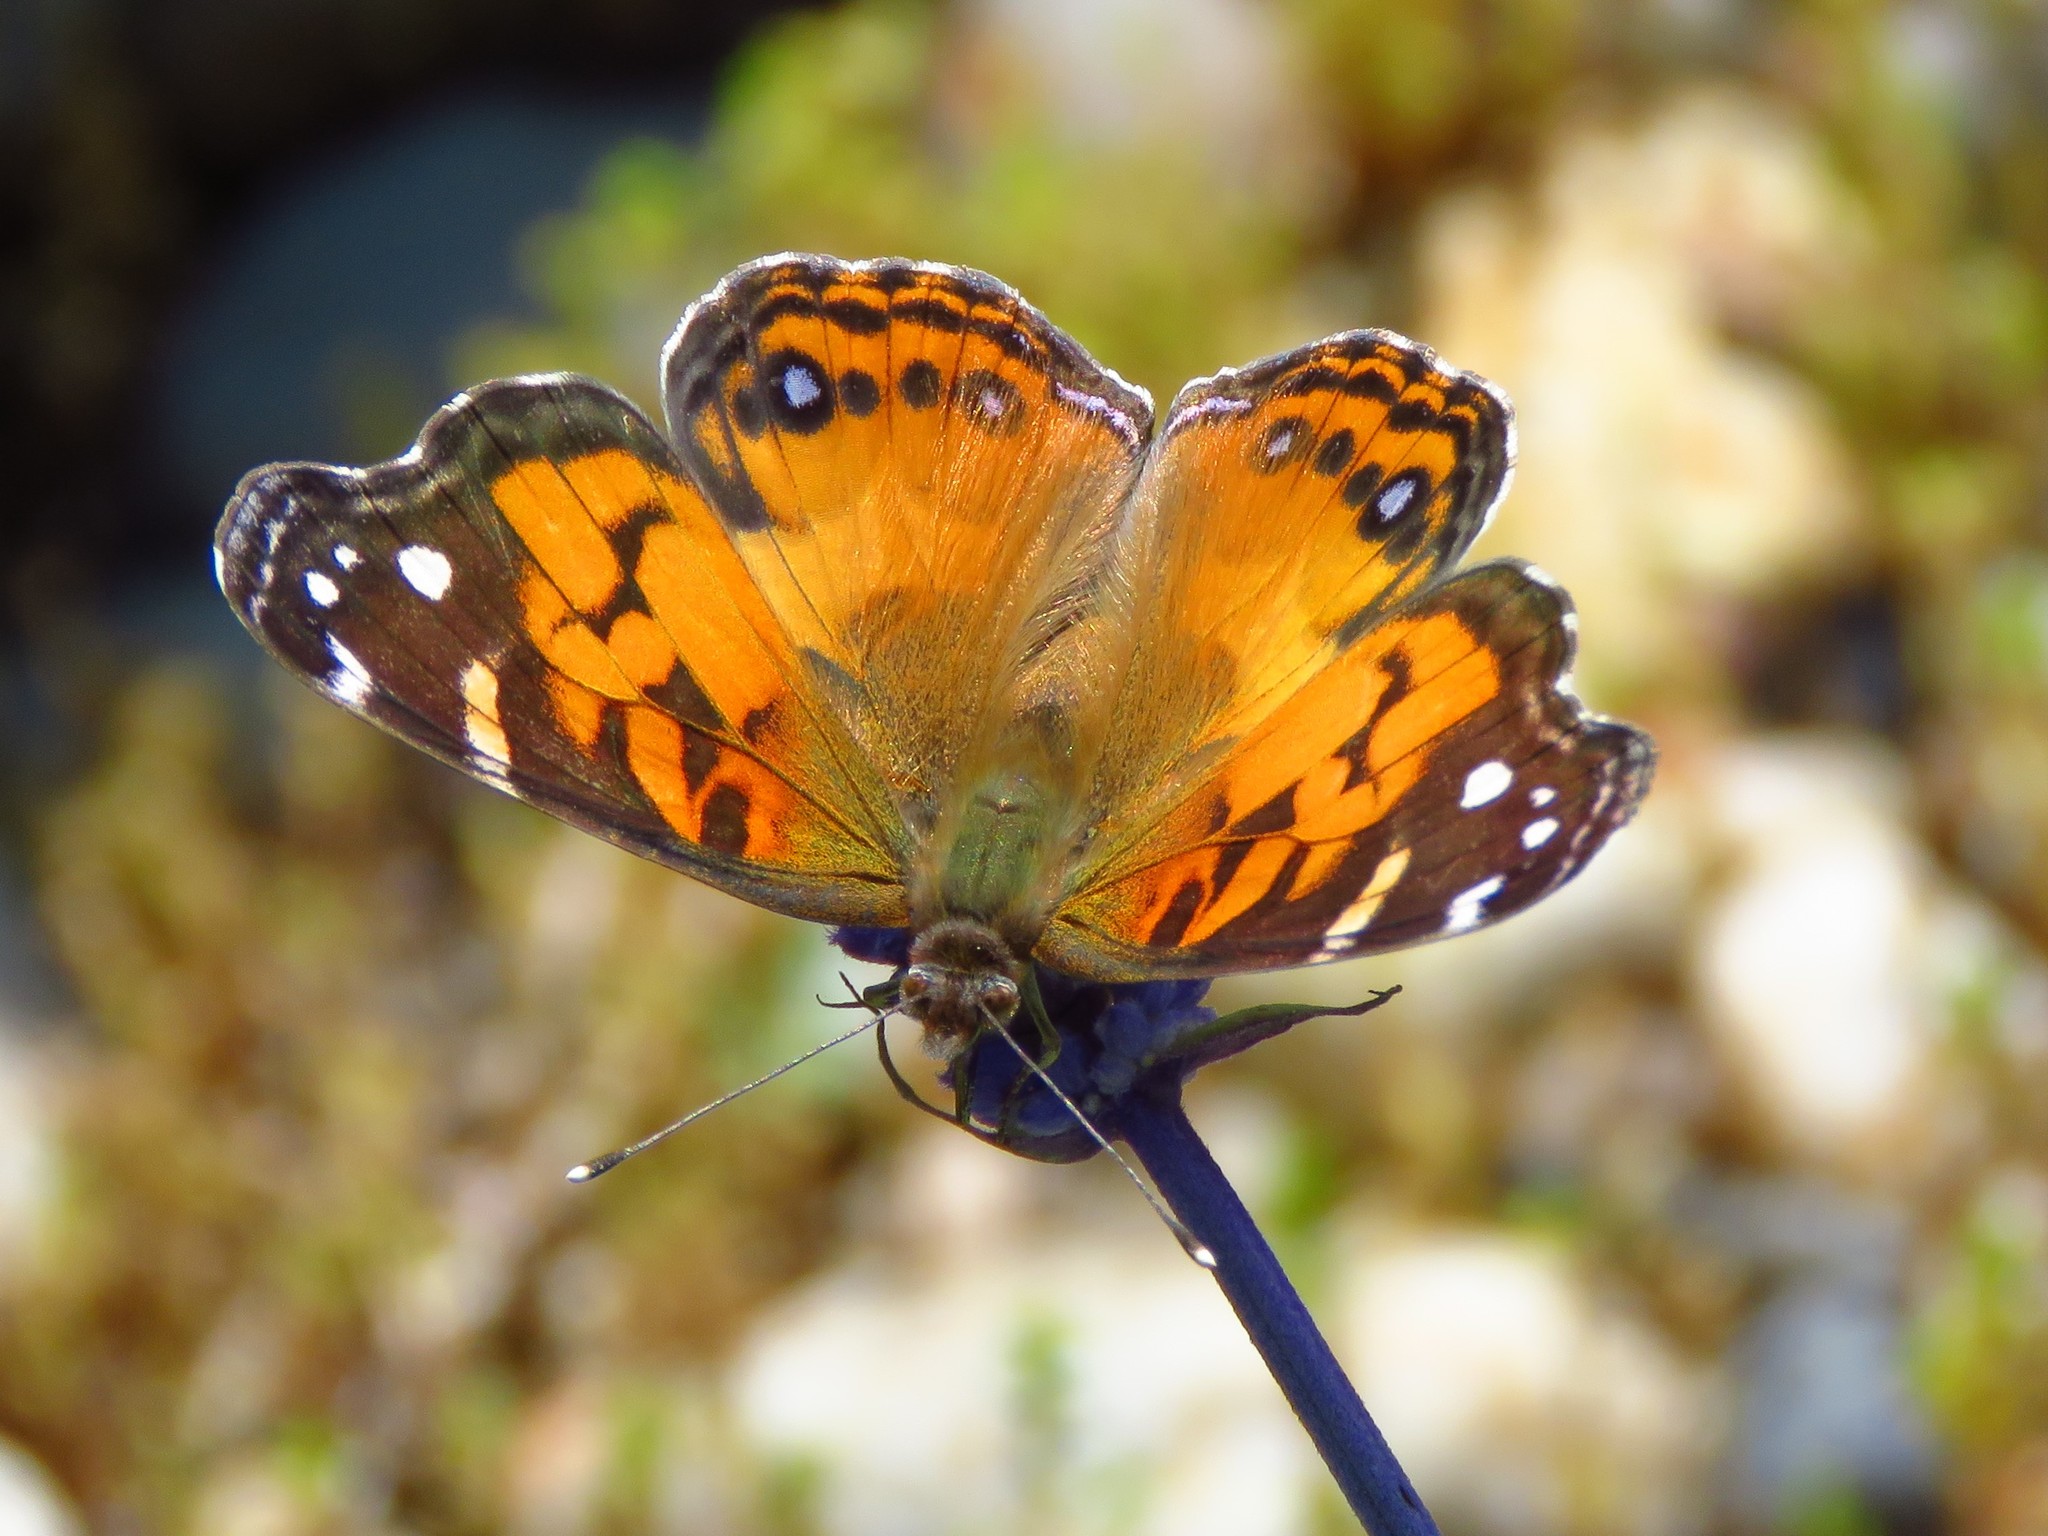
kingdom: Animalia
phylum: Arthropoda
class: Insecta
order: Lepidoptera
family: Nymphalidae
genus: Vanessa
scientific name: Vanessa virginiensis
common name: American lady
